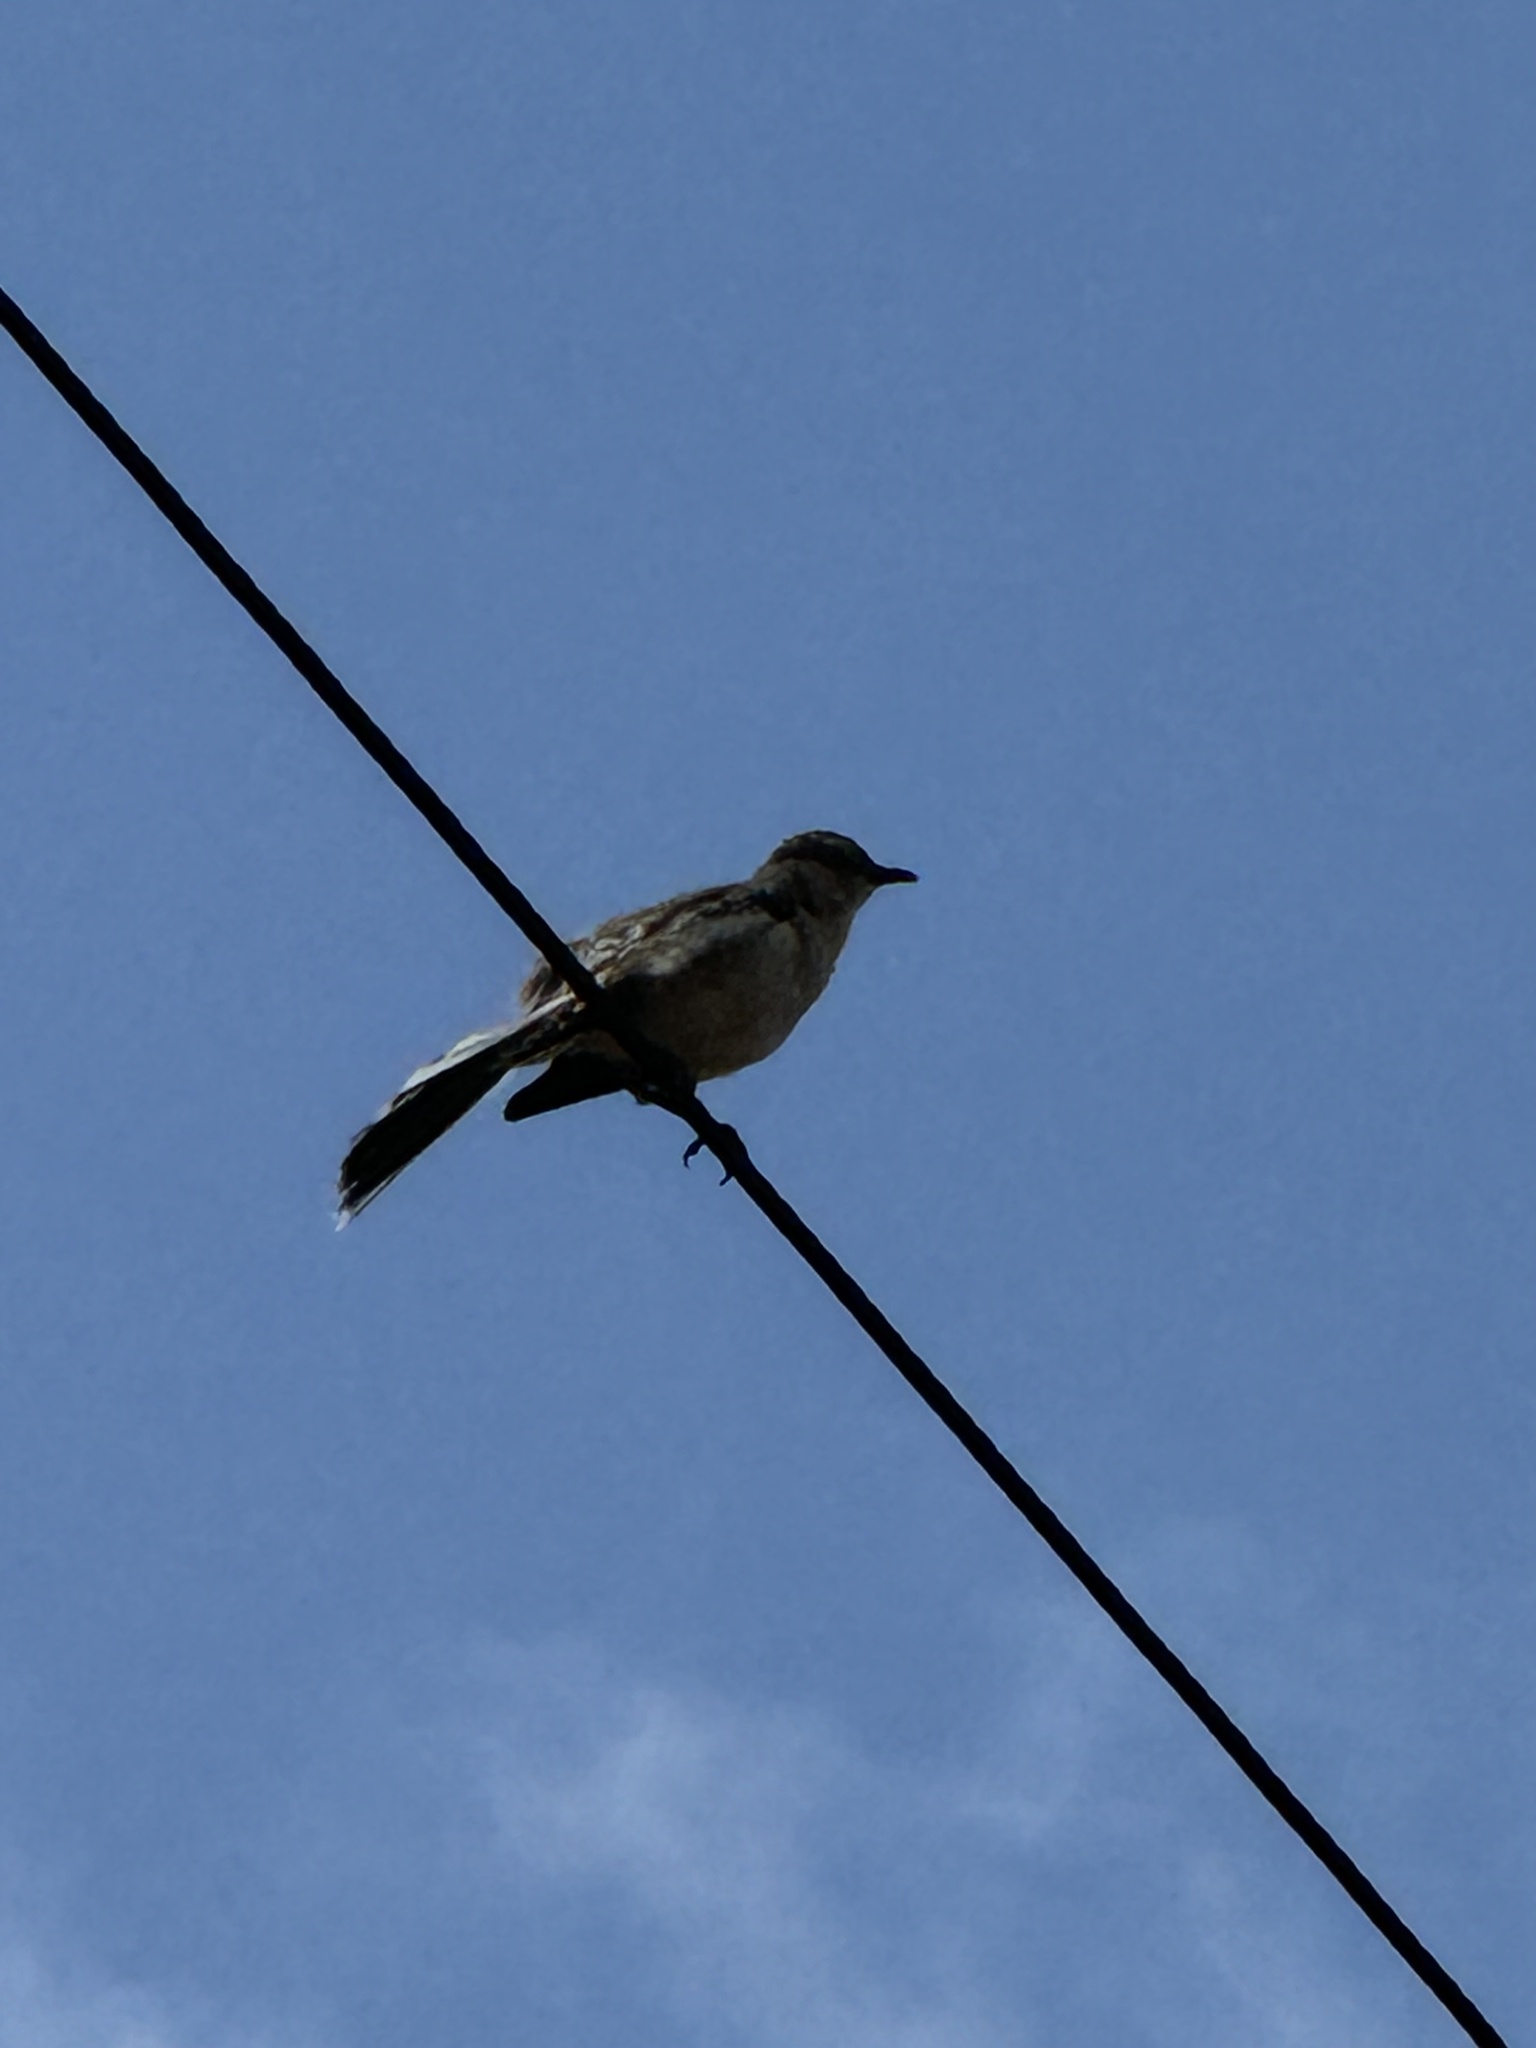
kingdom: Animalia
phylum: Chordata
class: Aves
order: Passeriformes
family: Mimidae
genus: Mimus
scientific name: Mimus polyglottos
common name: Northern mockingbird
